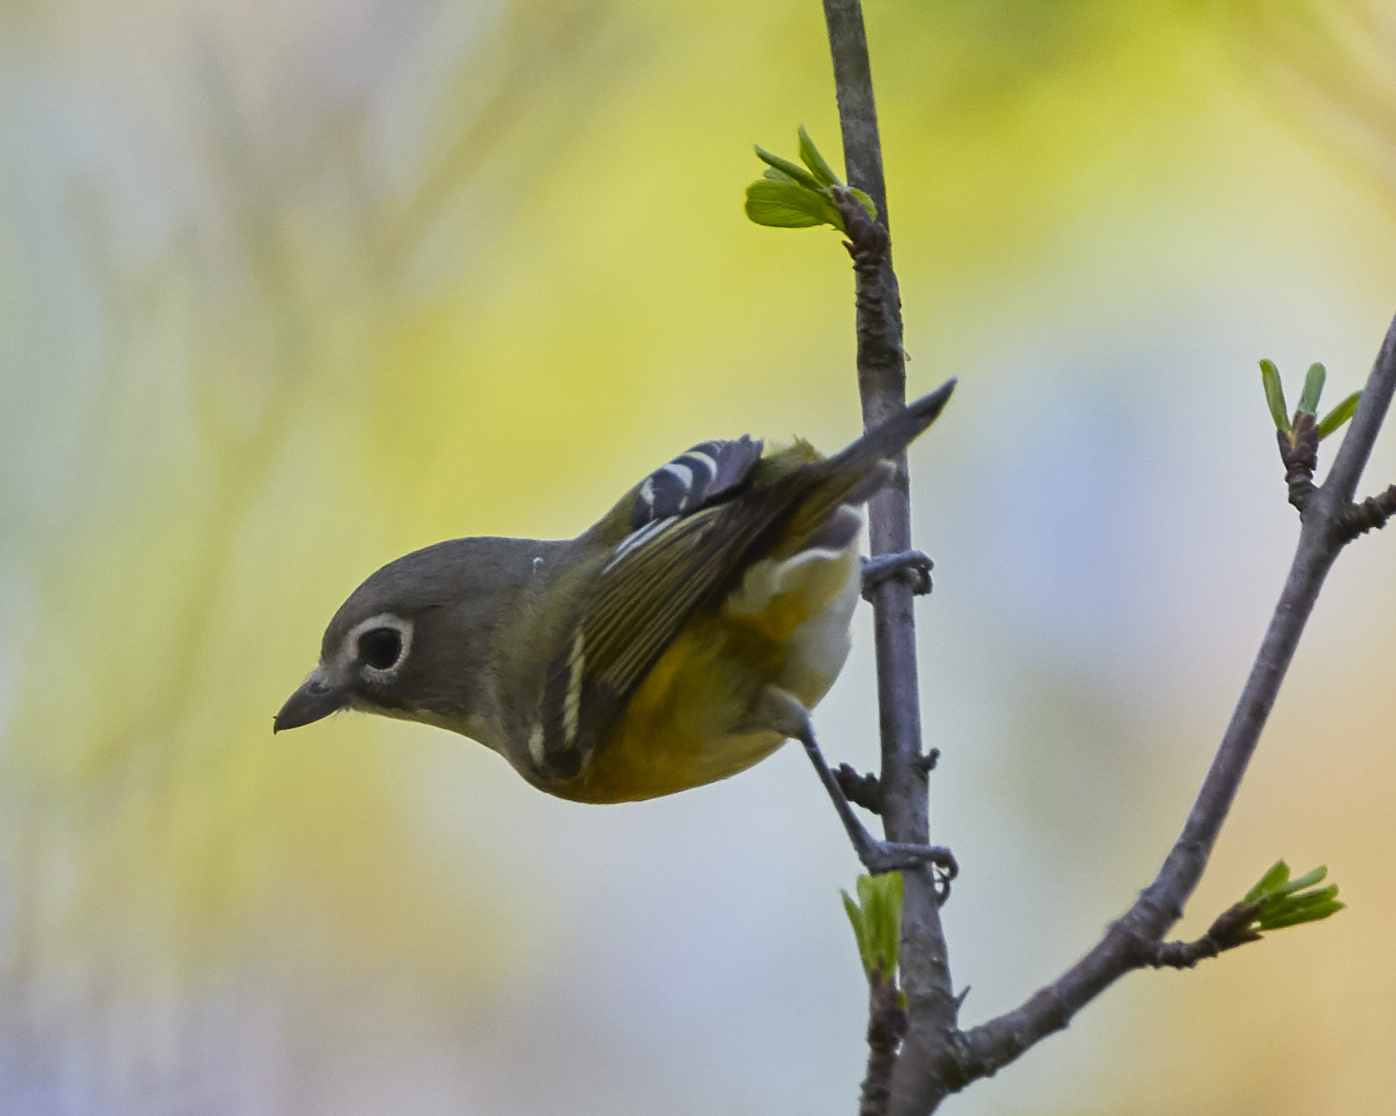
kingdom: Animalia
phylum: Chordata
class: Aves
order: Passeriformes
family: Vireonidae
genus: Vireo
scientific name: Vireo solitarius
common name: Blue-headed vireo
